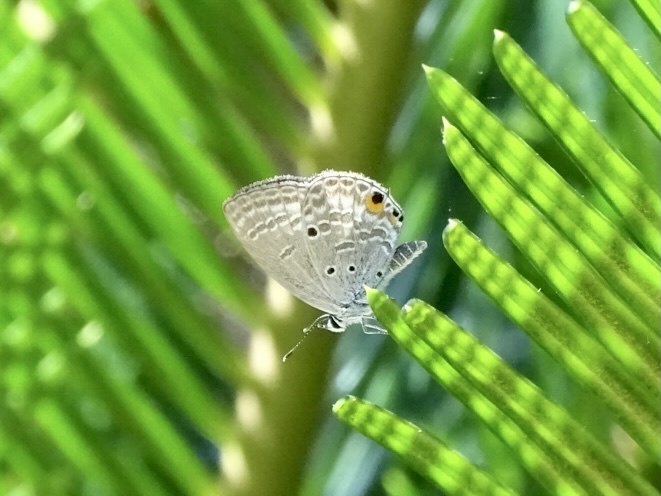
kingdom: Animalia
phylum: Arthropoda
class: Insecta
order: Lepidoptera
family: Lycaenidae
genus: Luthrodes
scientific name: Luthrodes pandava
